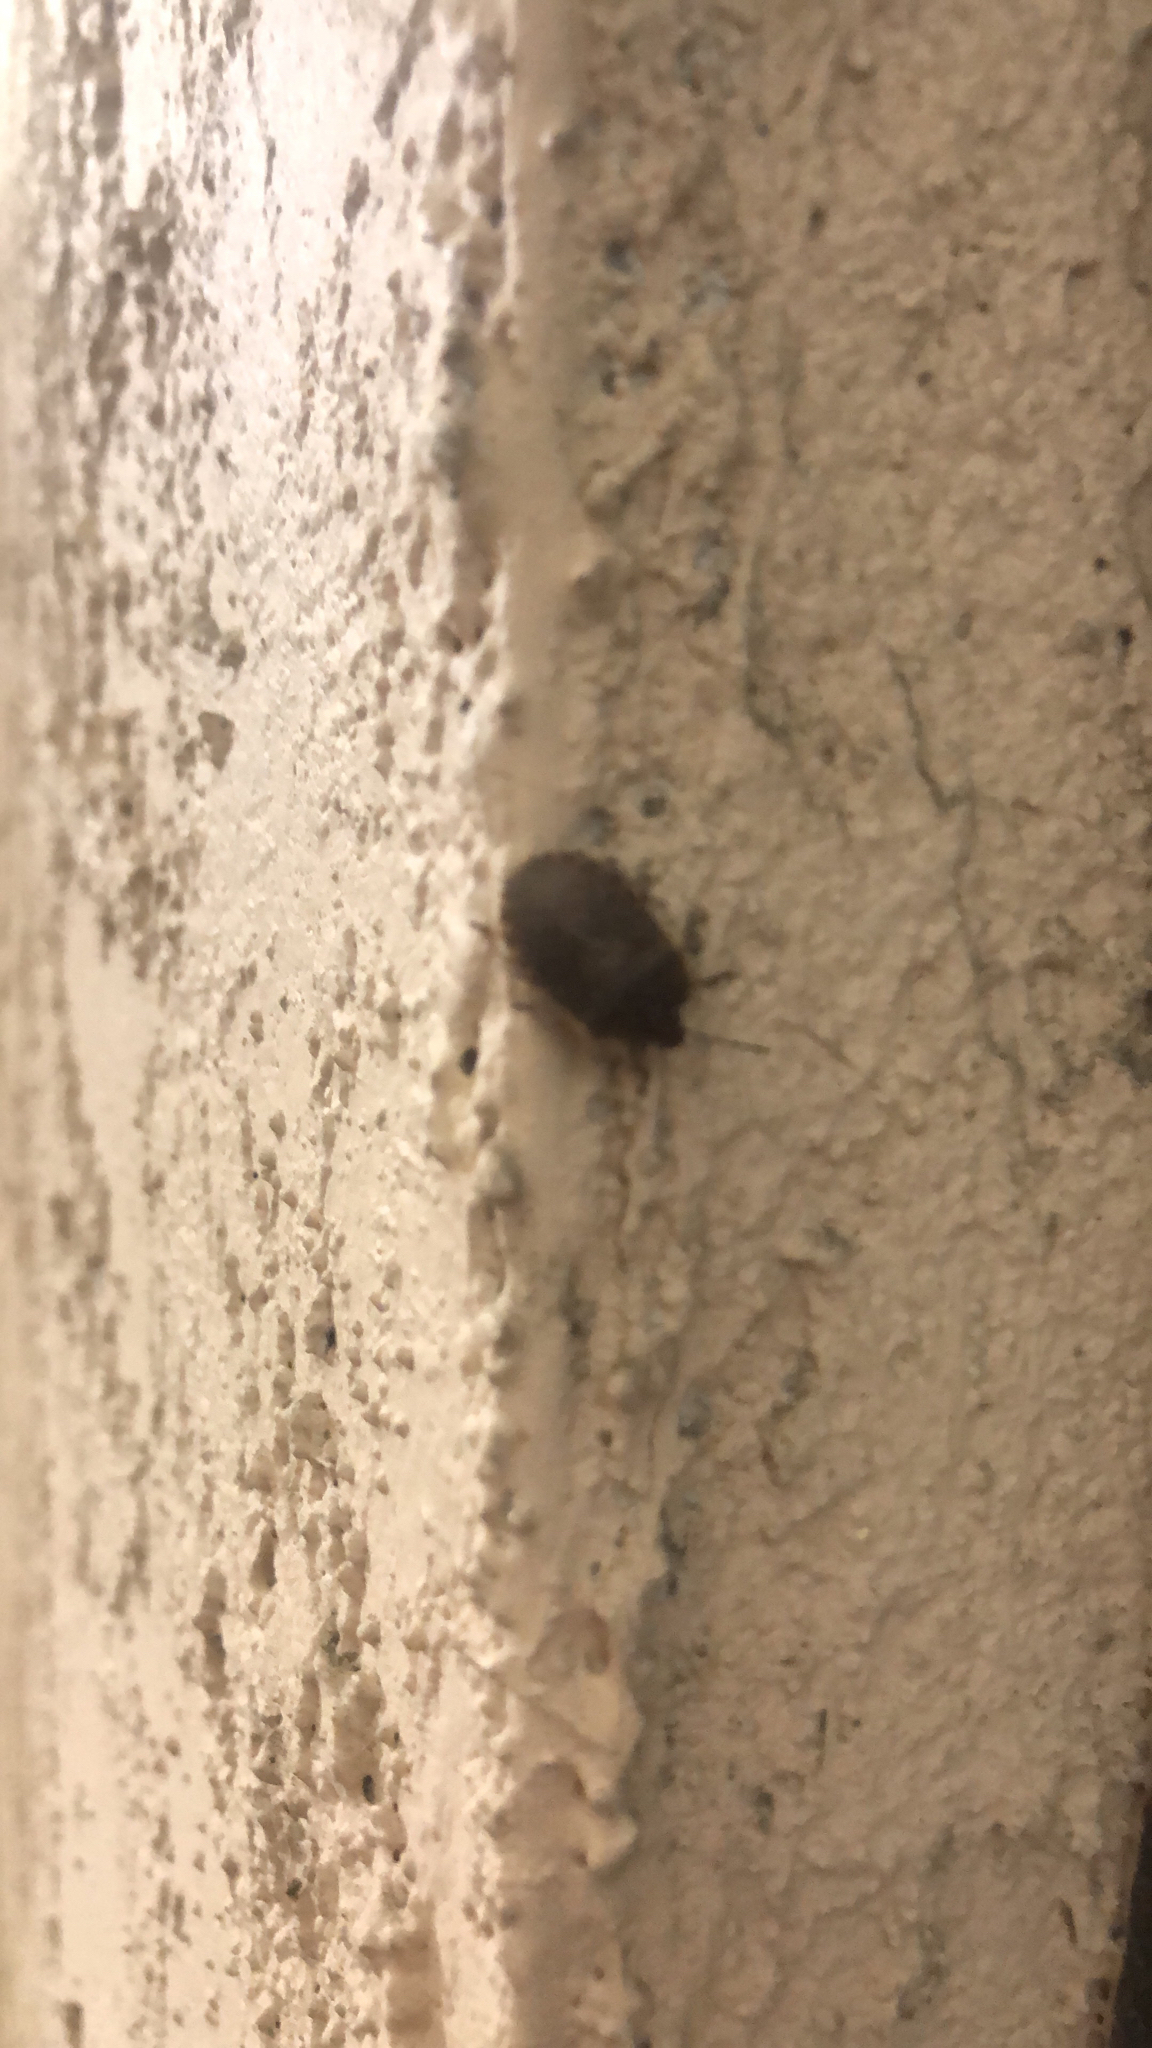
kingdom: Animalia
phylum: Arthropoda
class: Insecta
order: Hemiptera
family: Pentatomidae
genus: Menecles
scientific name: Menecles insertus
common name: Elf shoe stink bug
